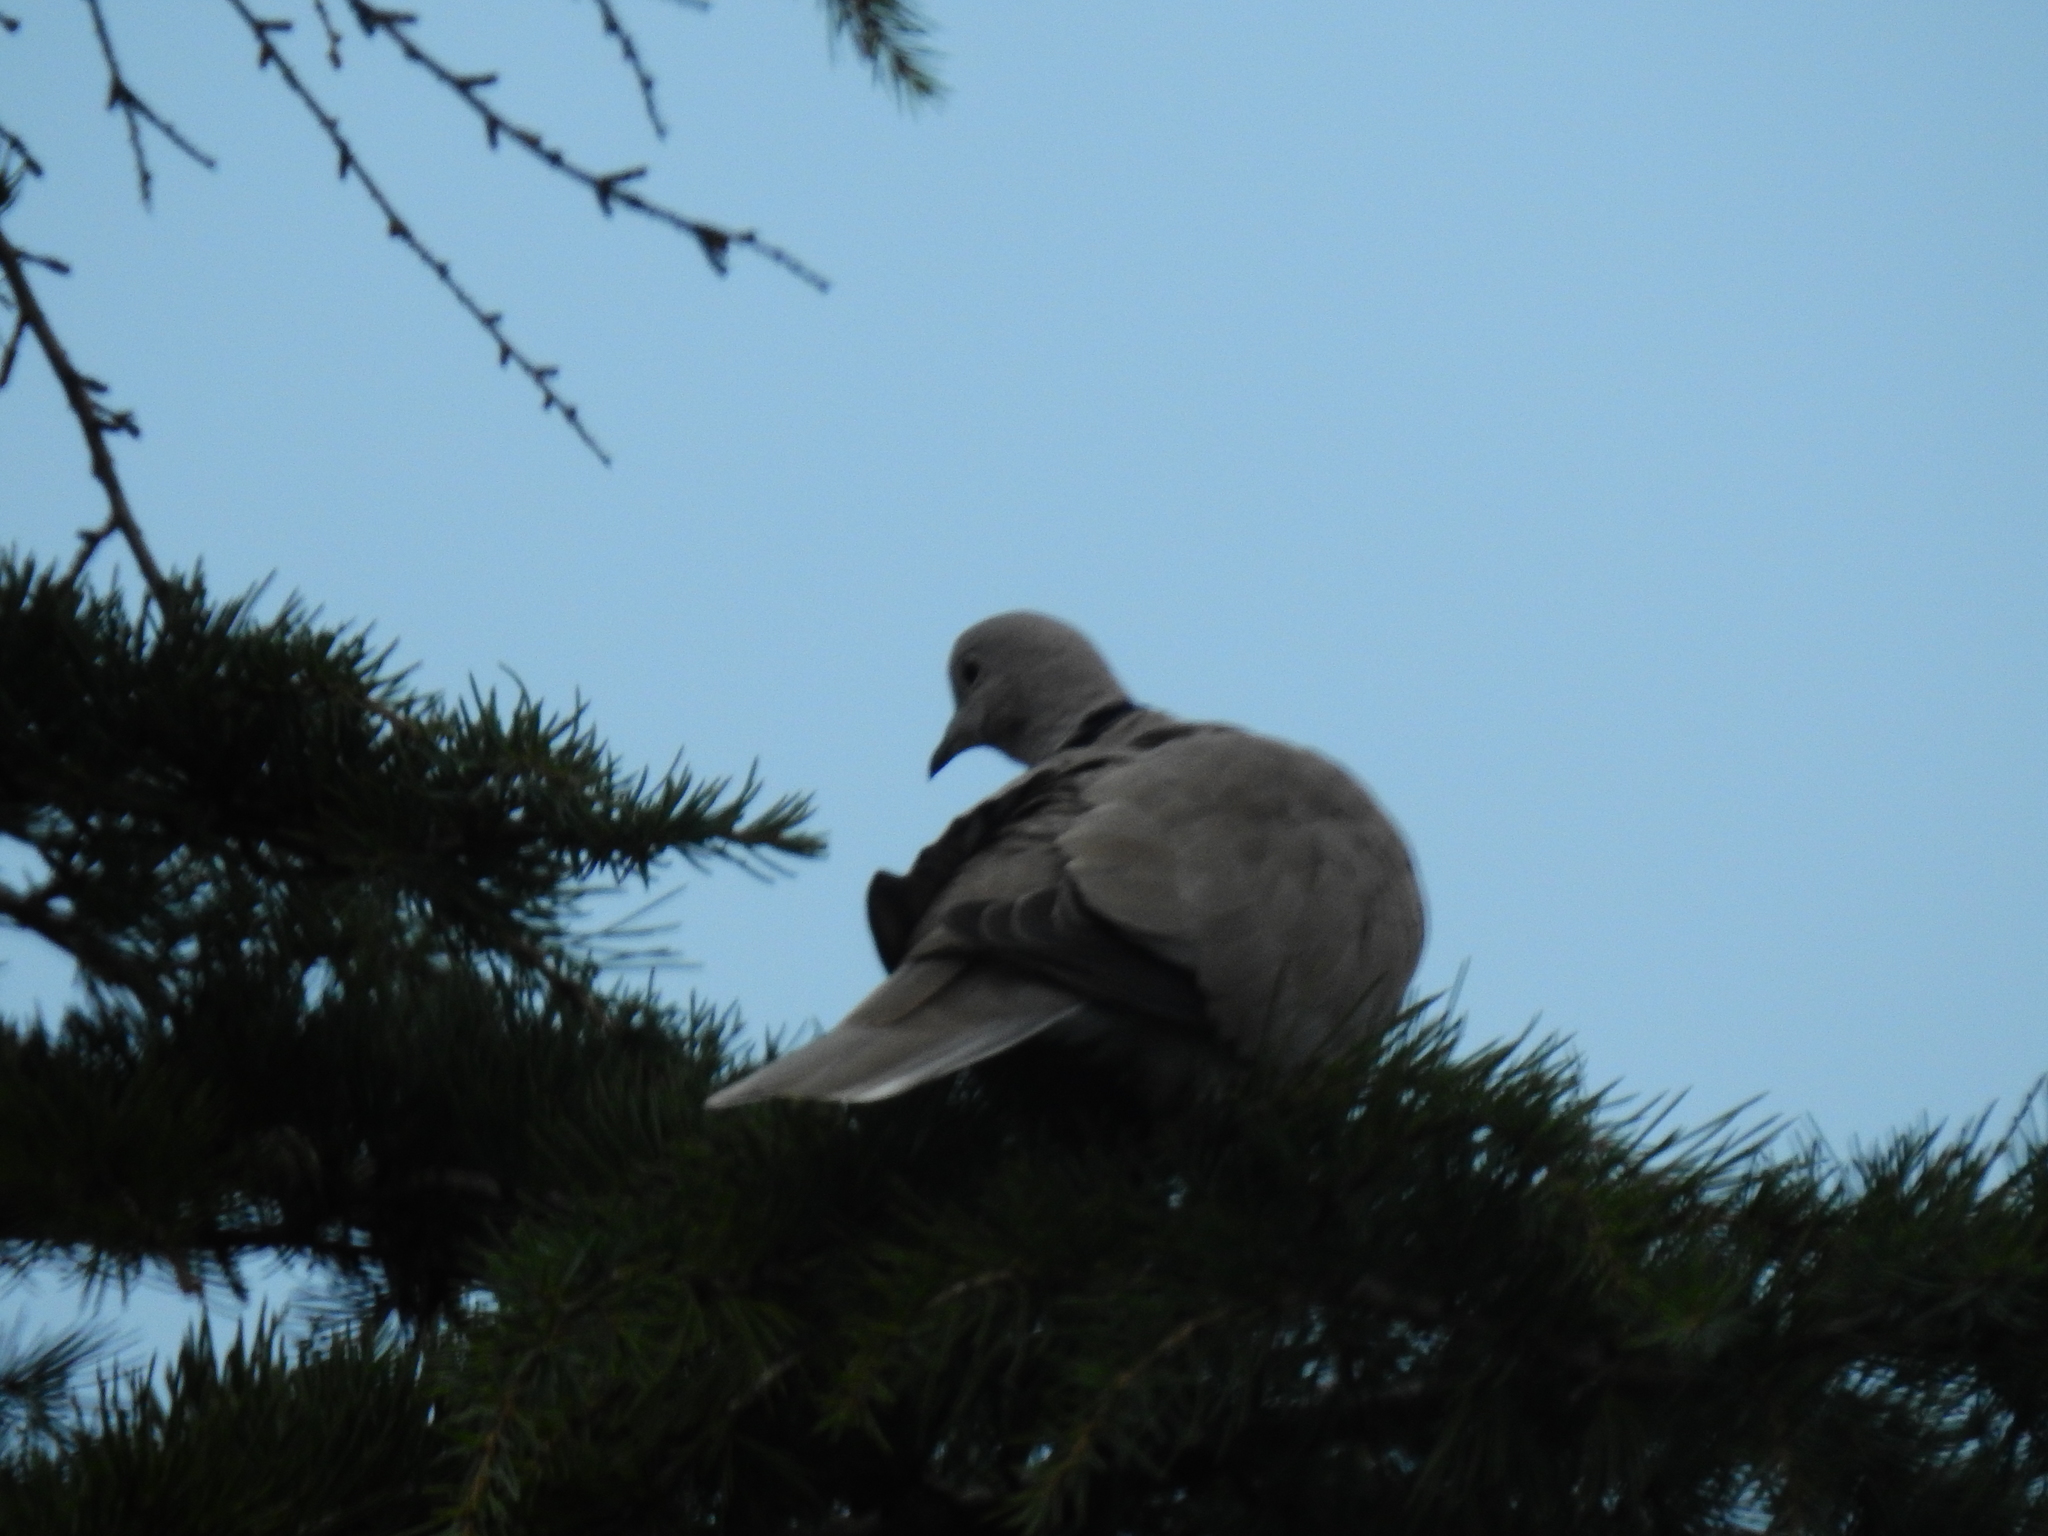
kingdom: Animalia
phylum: Chordata
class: Aves
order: Columbiformes
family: Columbidae
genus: Streptopelia
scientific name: Streptopelia decaocto
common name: Eurasian collared dove
